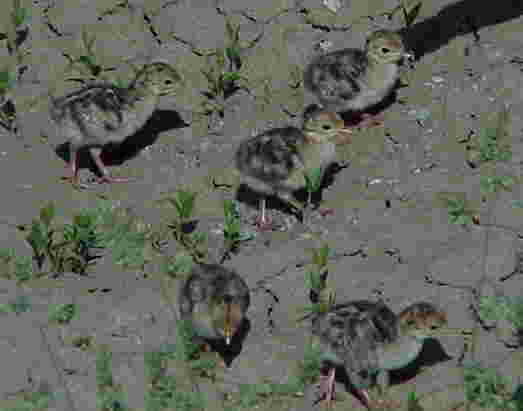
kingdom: Animalia
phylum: Chordata
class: Aves
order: Galliformes
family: Phasianidae
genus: Meleagris
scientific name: Meleagris gallopavo
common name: Wild turkey
